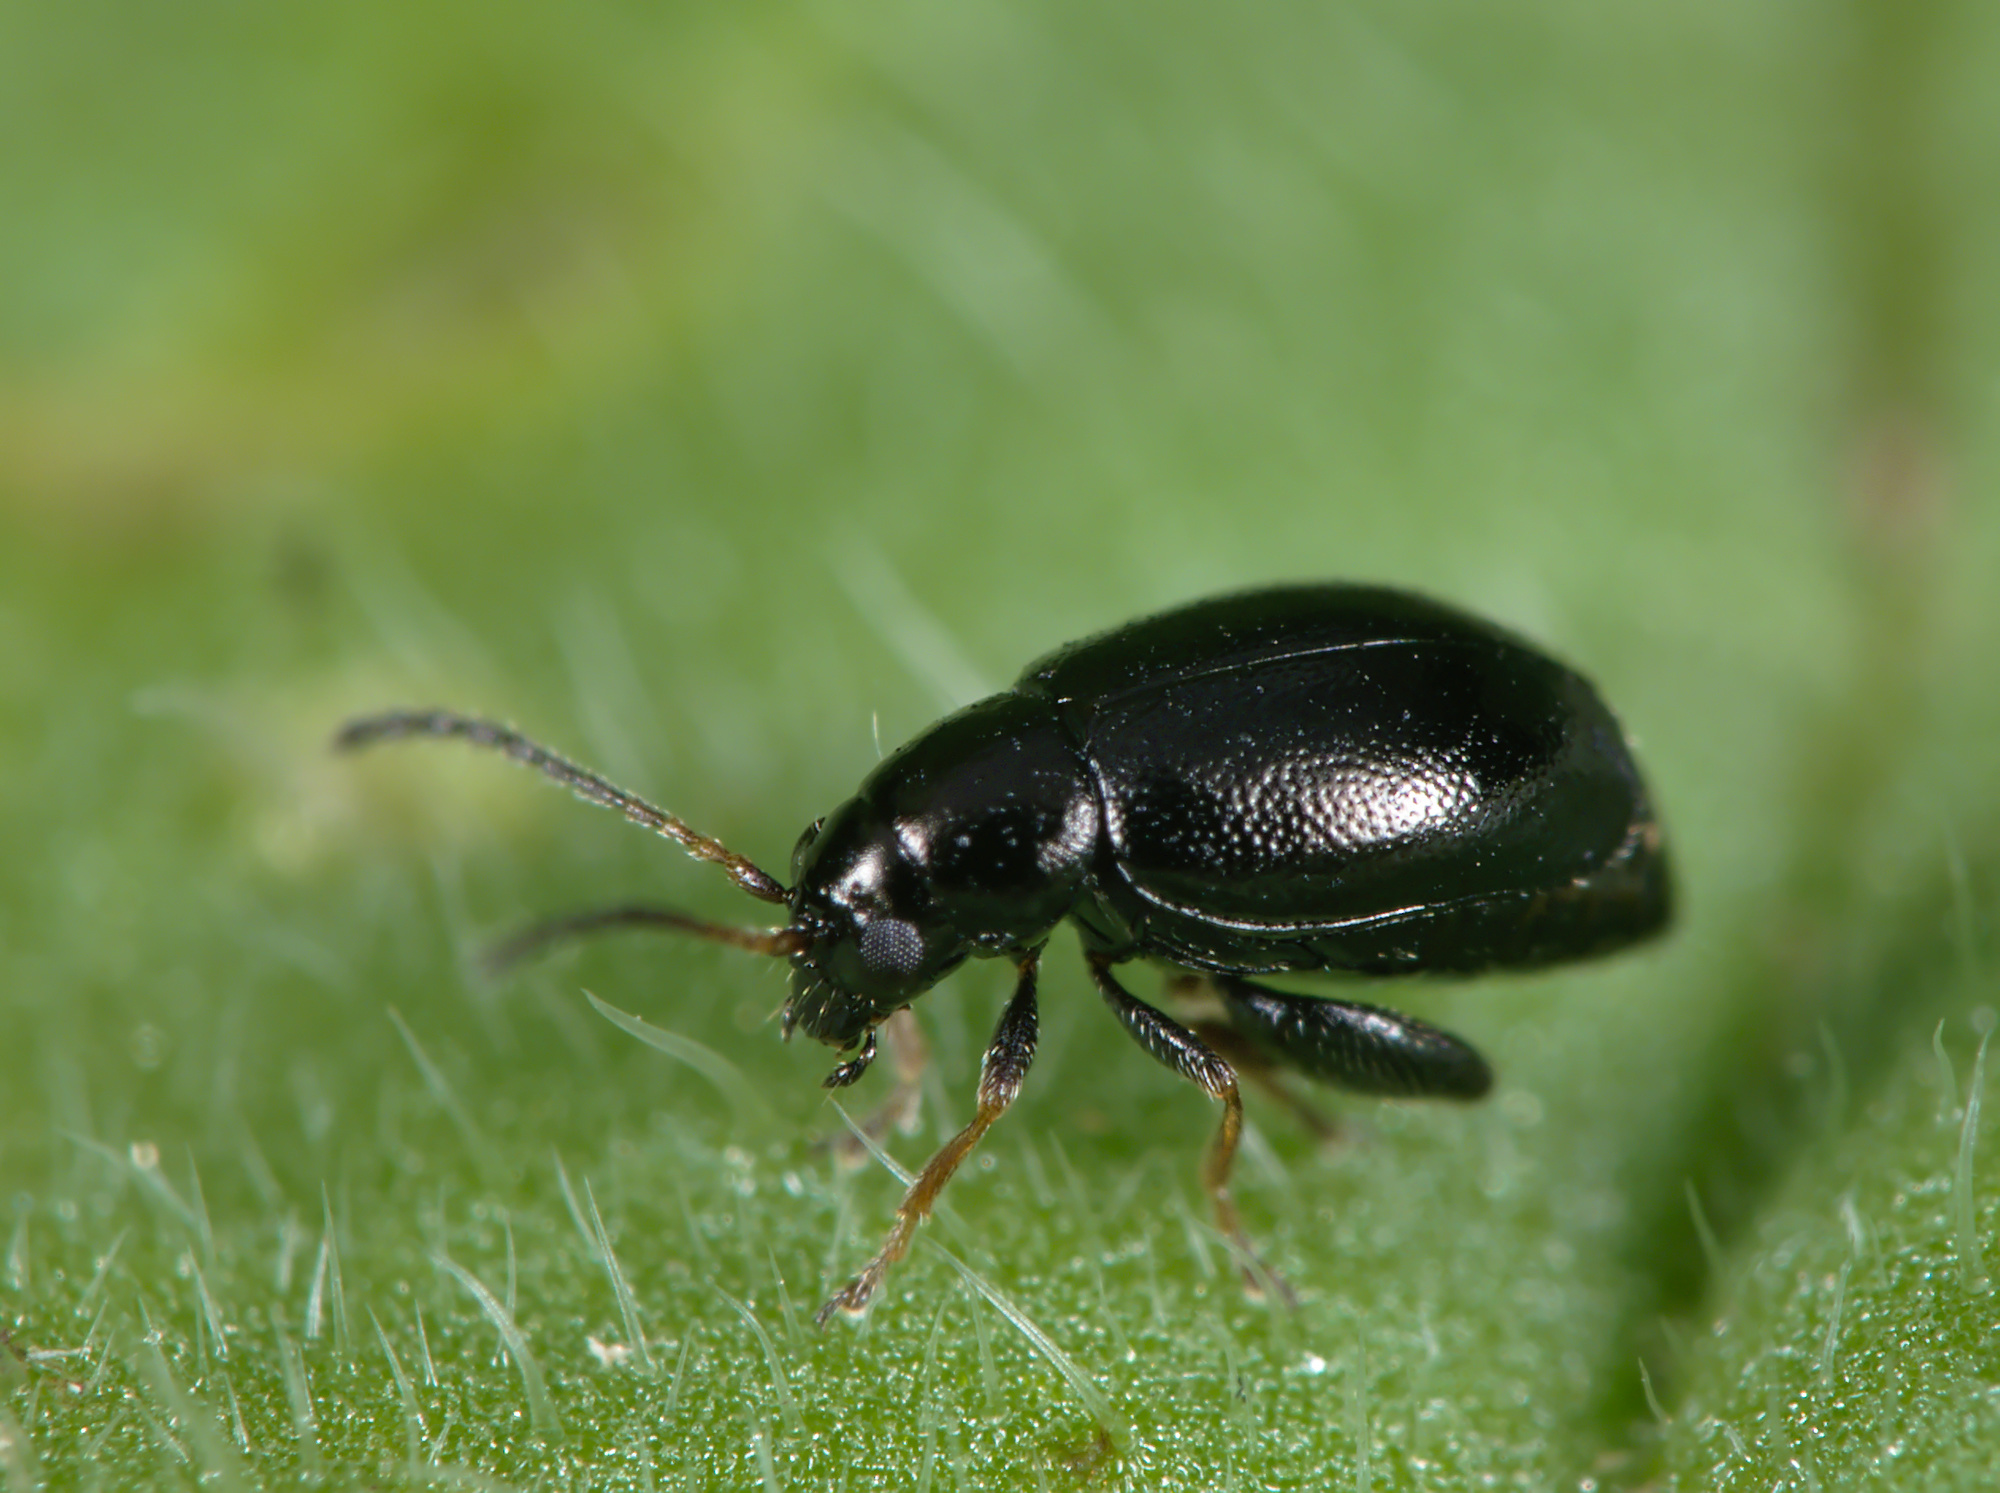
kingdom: Animalia
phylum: Arthropoda
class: Insecta
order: Coleoptera
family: Chrysomelidae
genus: Longitarsus
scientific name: Longitarsus anchusae
